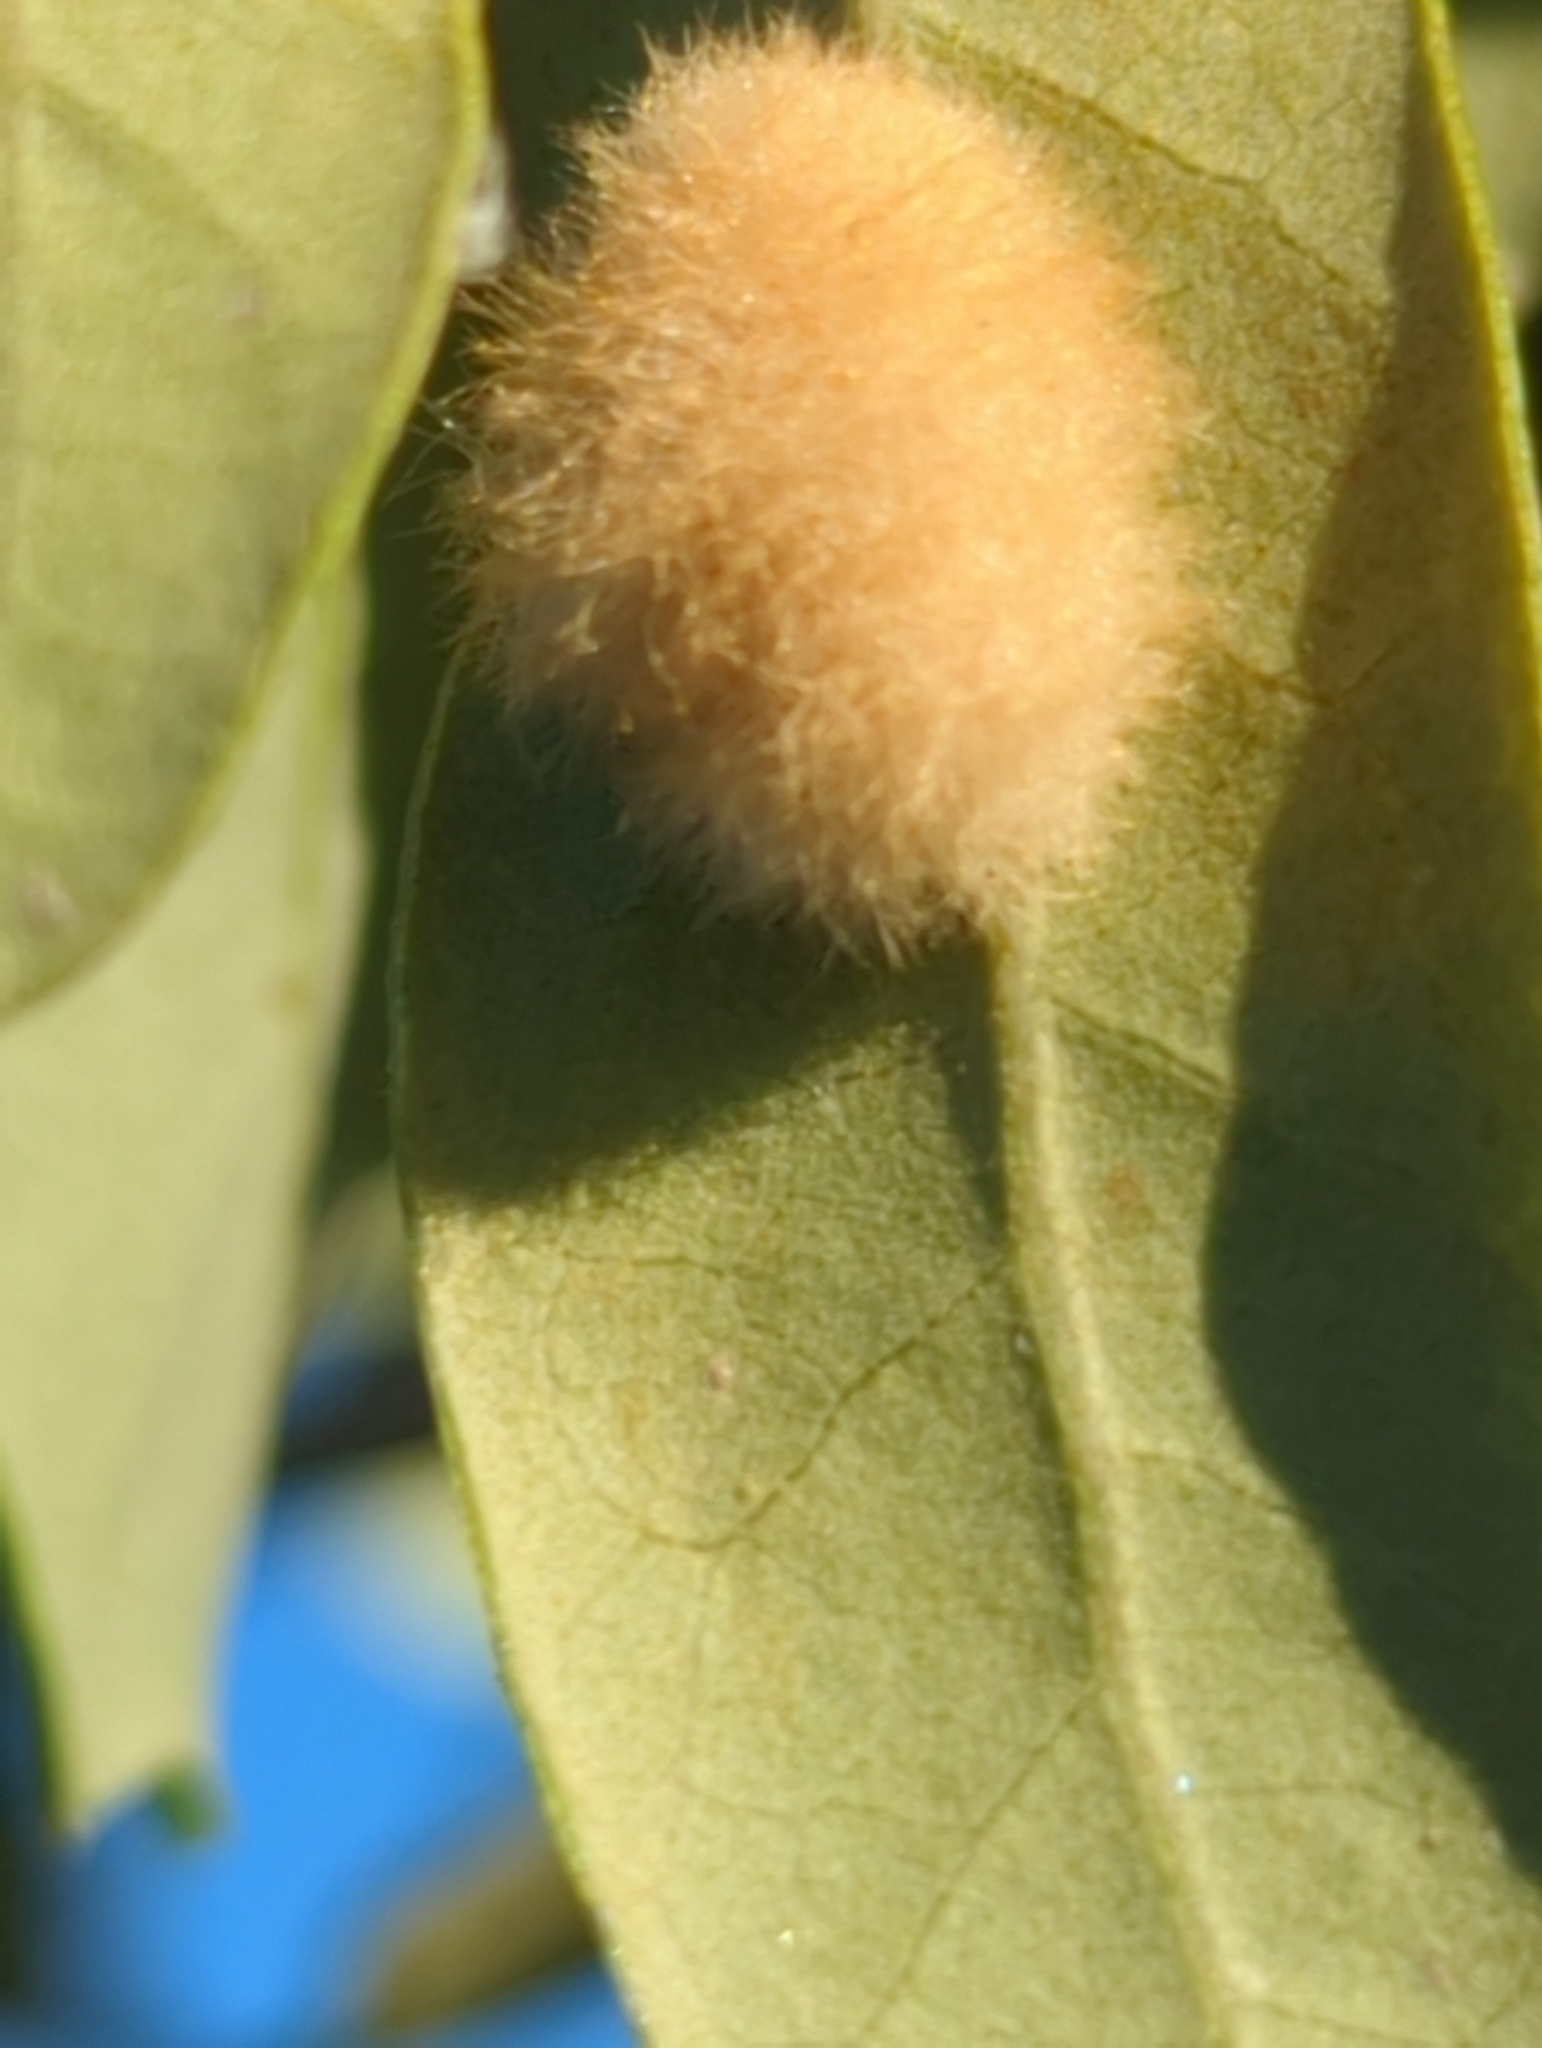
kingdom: Animalia
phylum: Arthropoda
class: Insecta
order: Hymenoptera
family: Cynipidae
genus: Andricus
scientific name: Andricus Druon quercuslanigerum
